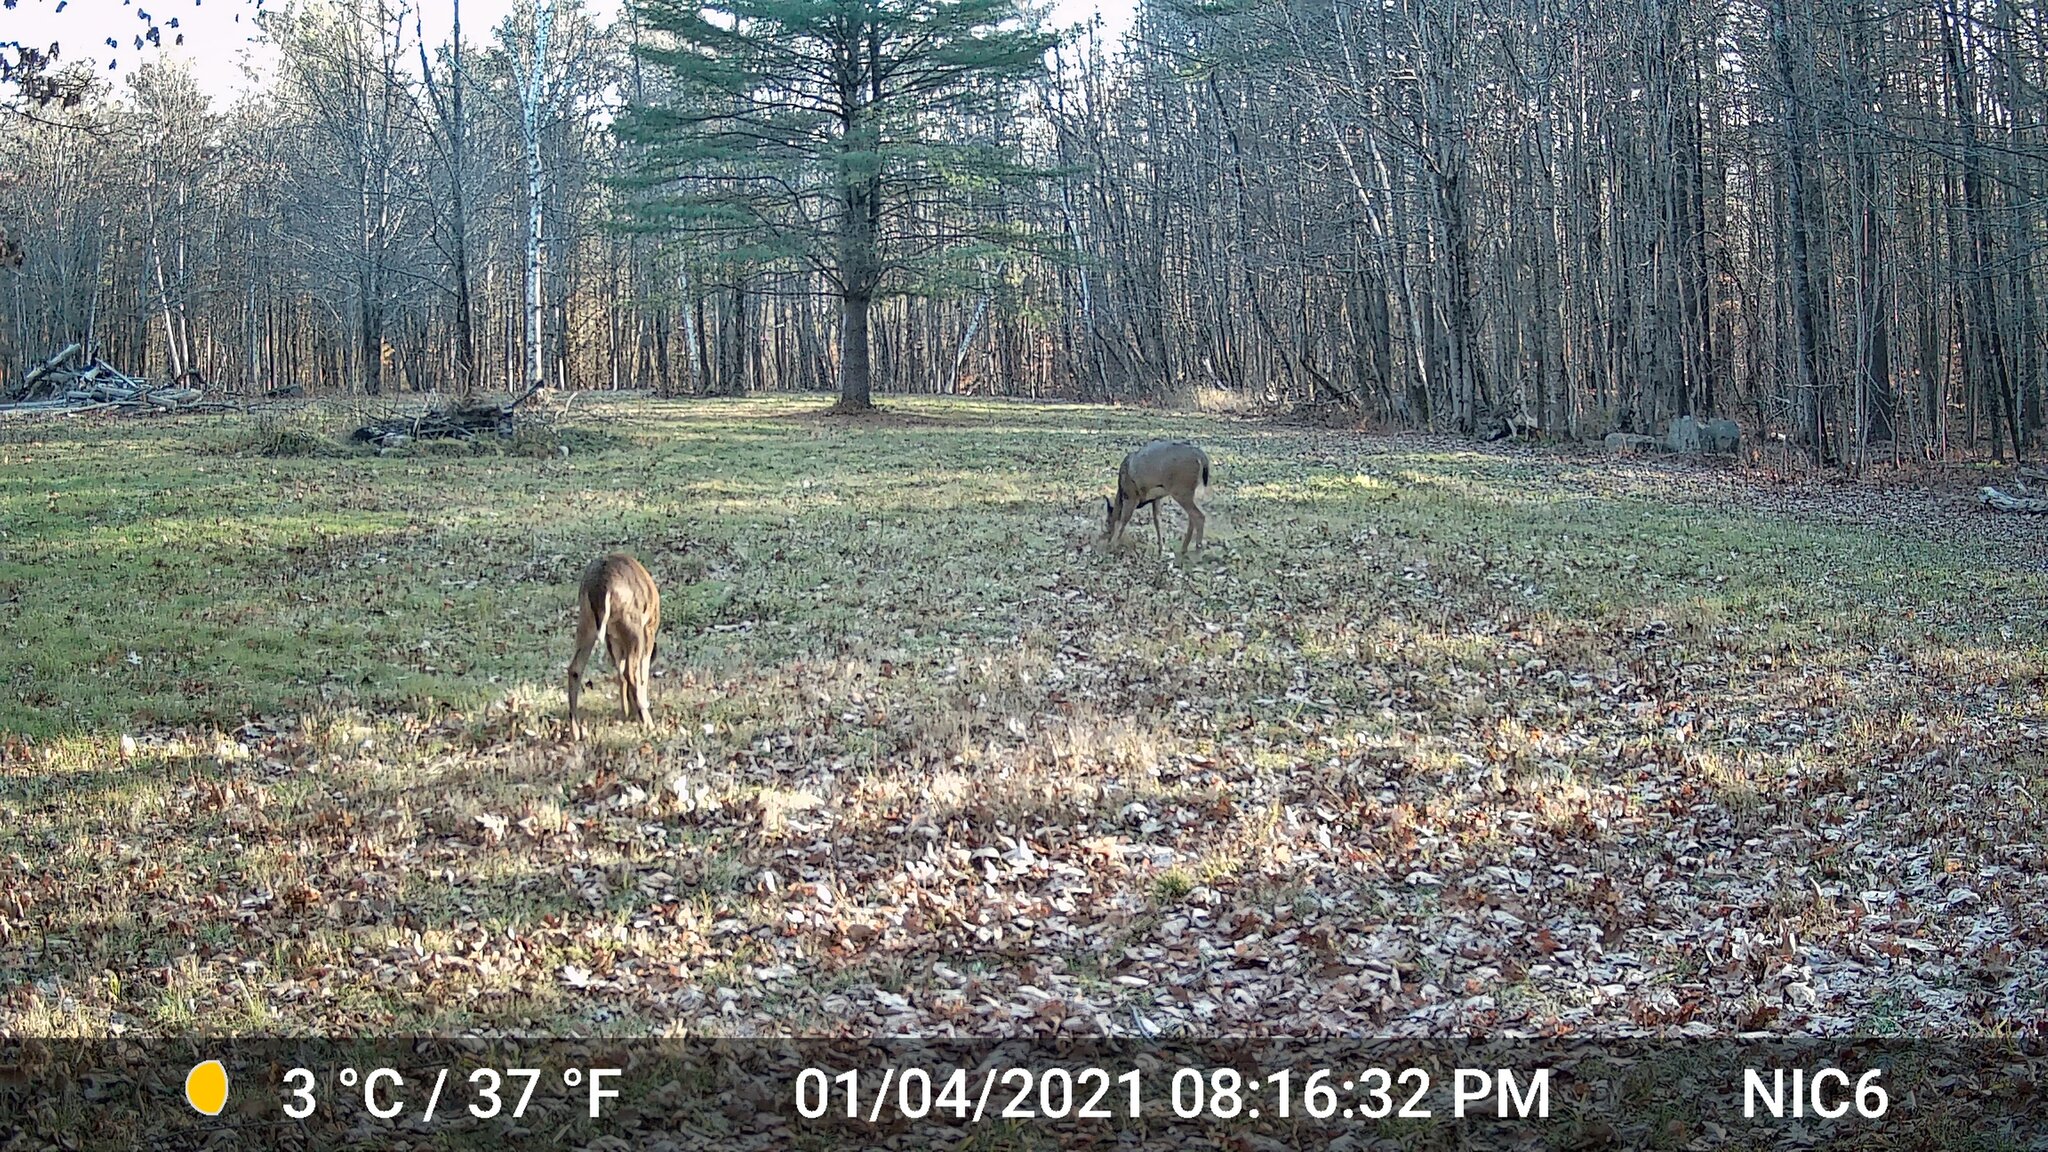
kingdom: Animalia
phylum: Chordata
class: Mammalia
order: Artiodactyla
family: Cervidae
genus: Odocoileus
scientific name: Odocoileus virginianus
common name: White-tailed deer
